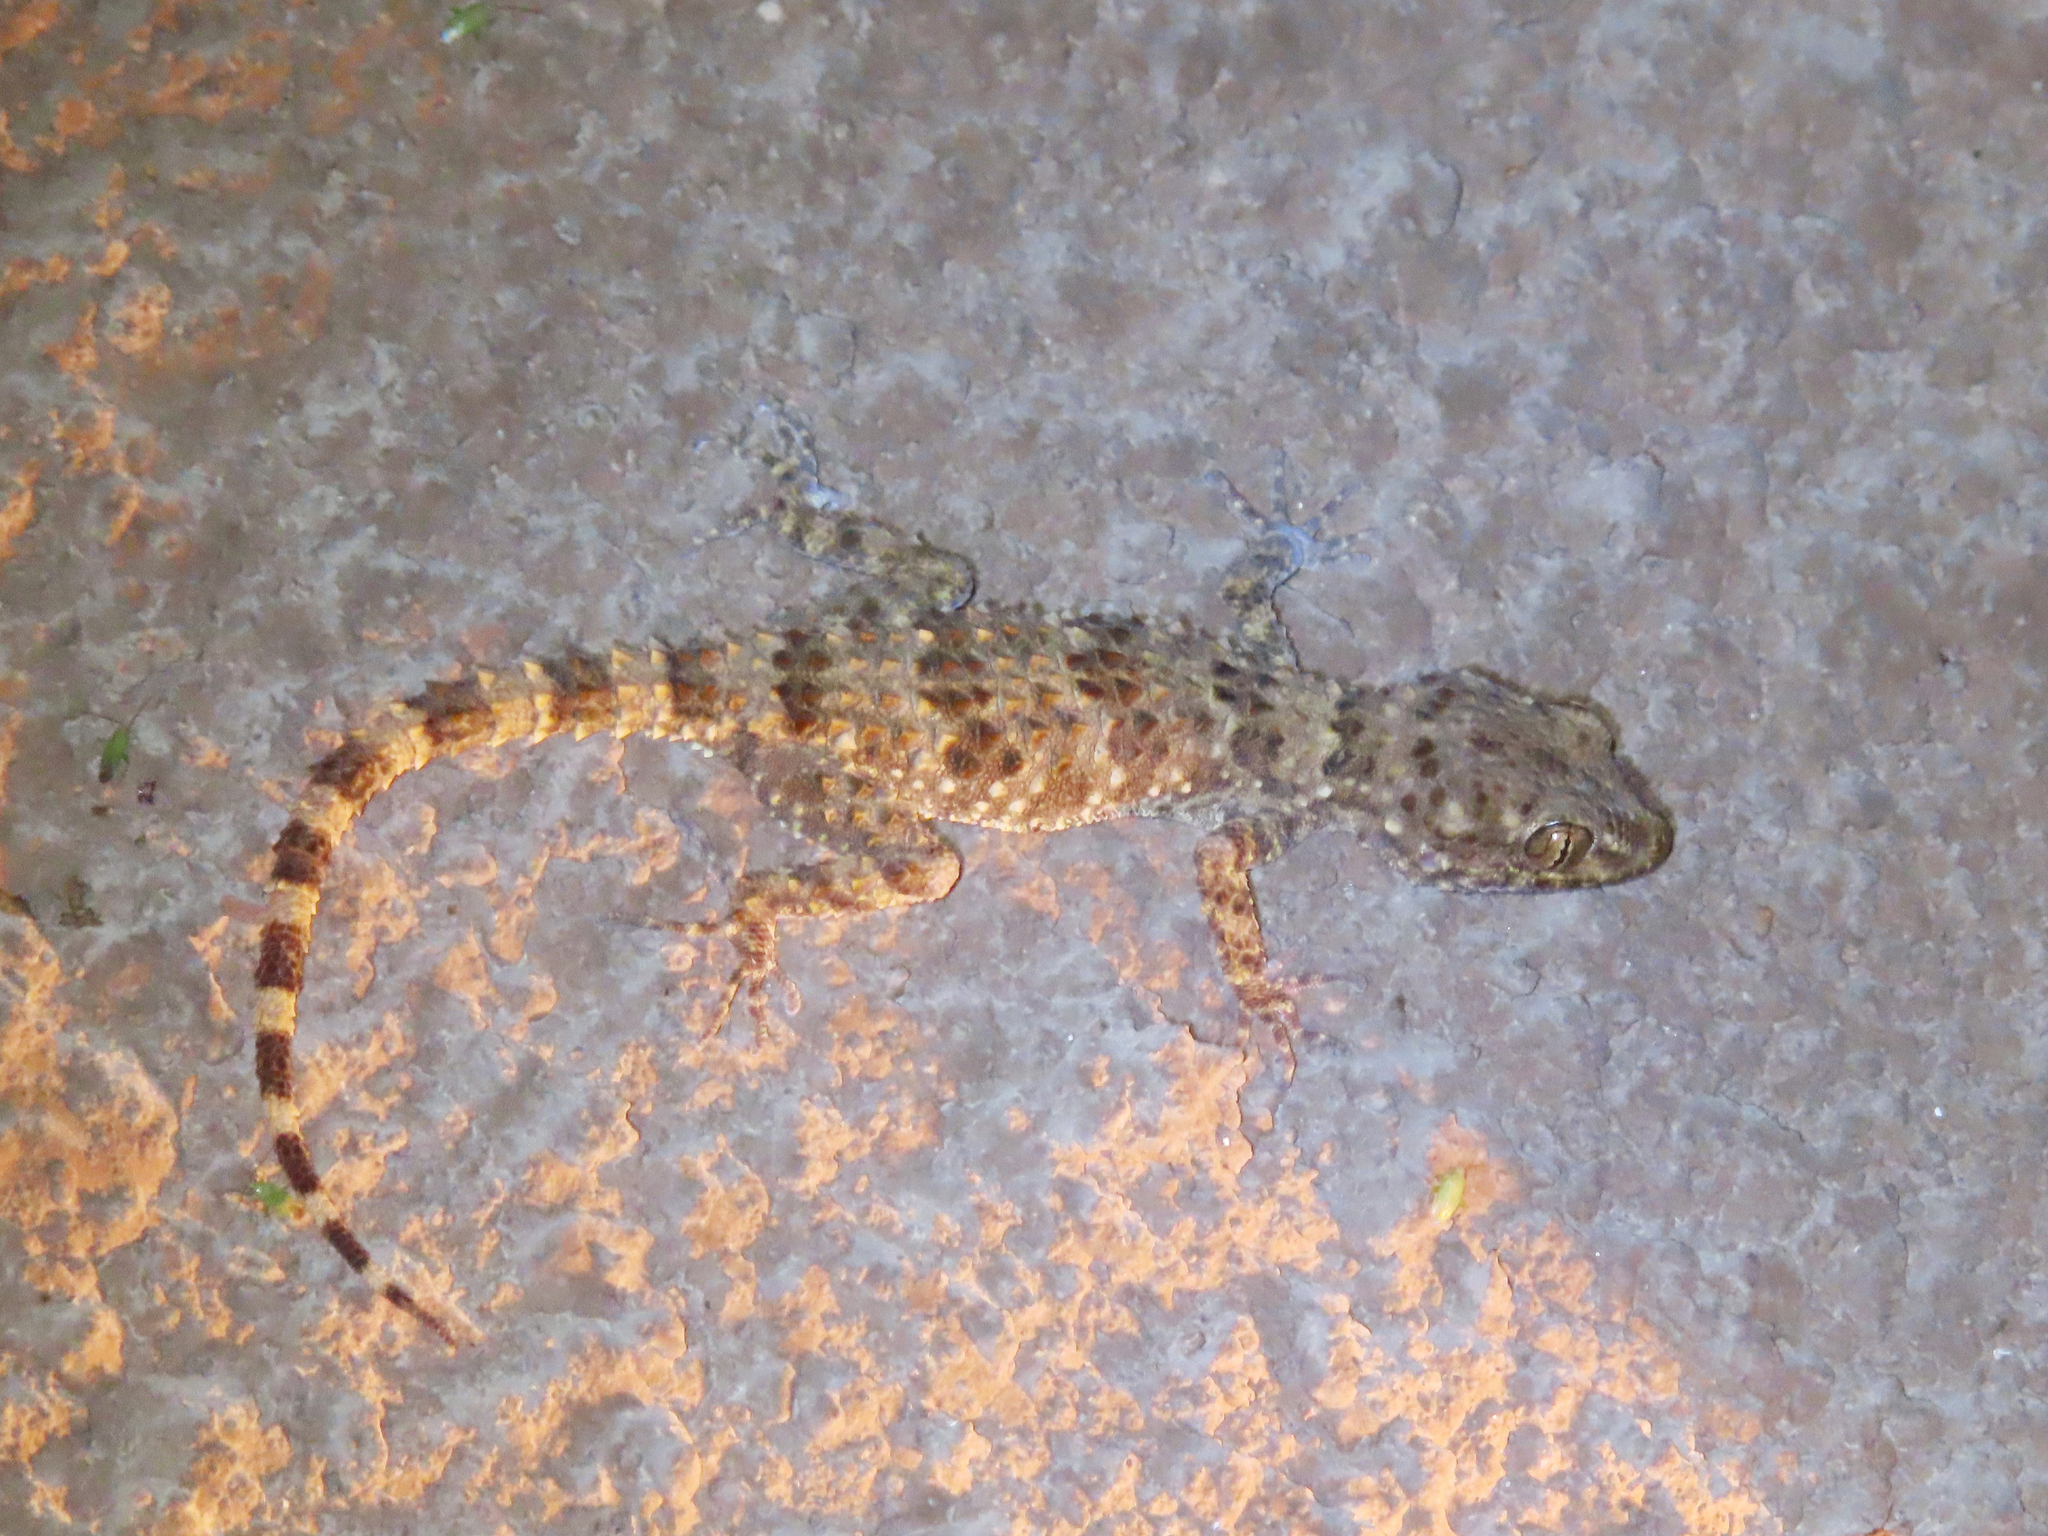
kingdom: Animalia
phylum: Chordata
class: Squamata
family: Gekkonidae
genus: Tenuidactylus
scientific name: Tenuidactylus caspius
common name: Caspian bent-toed gecko
